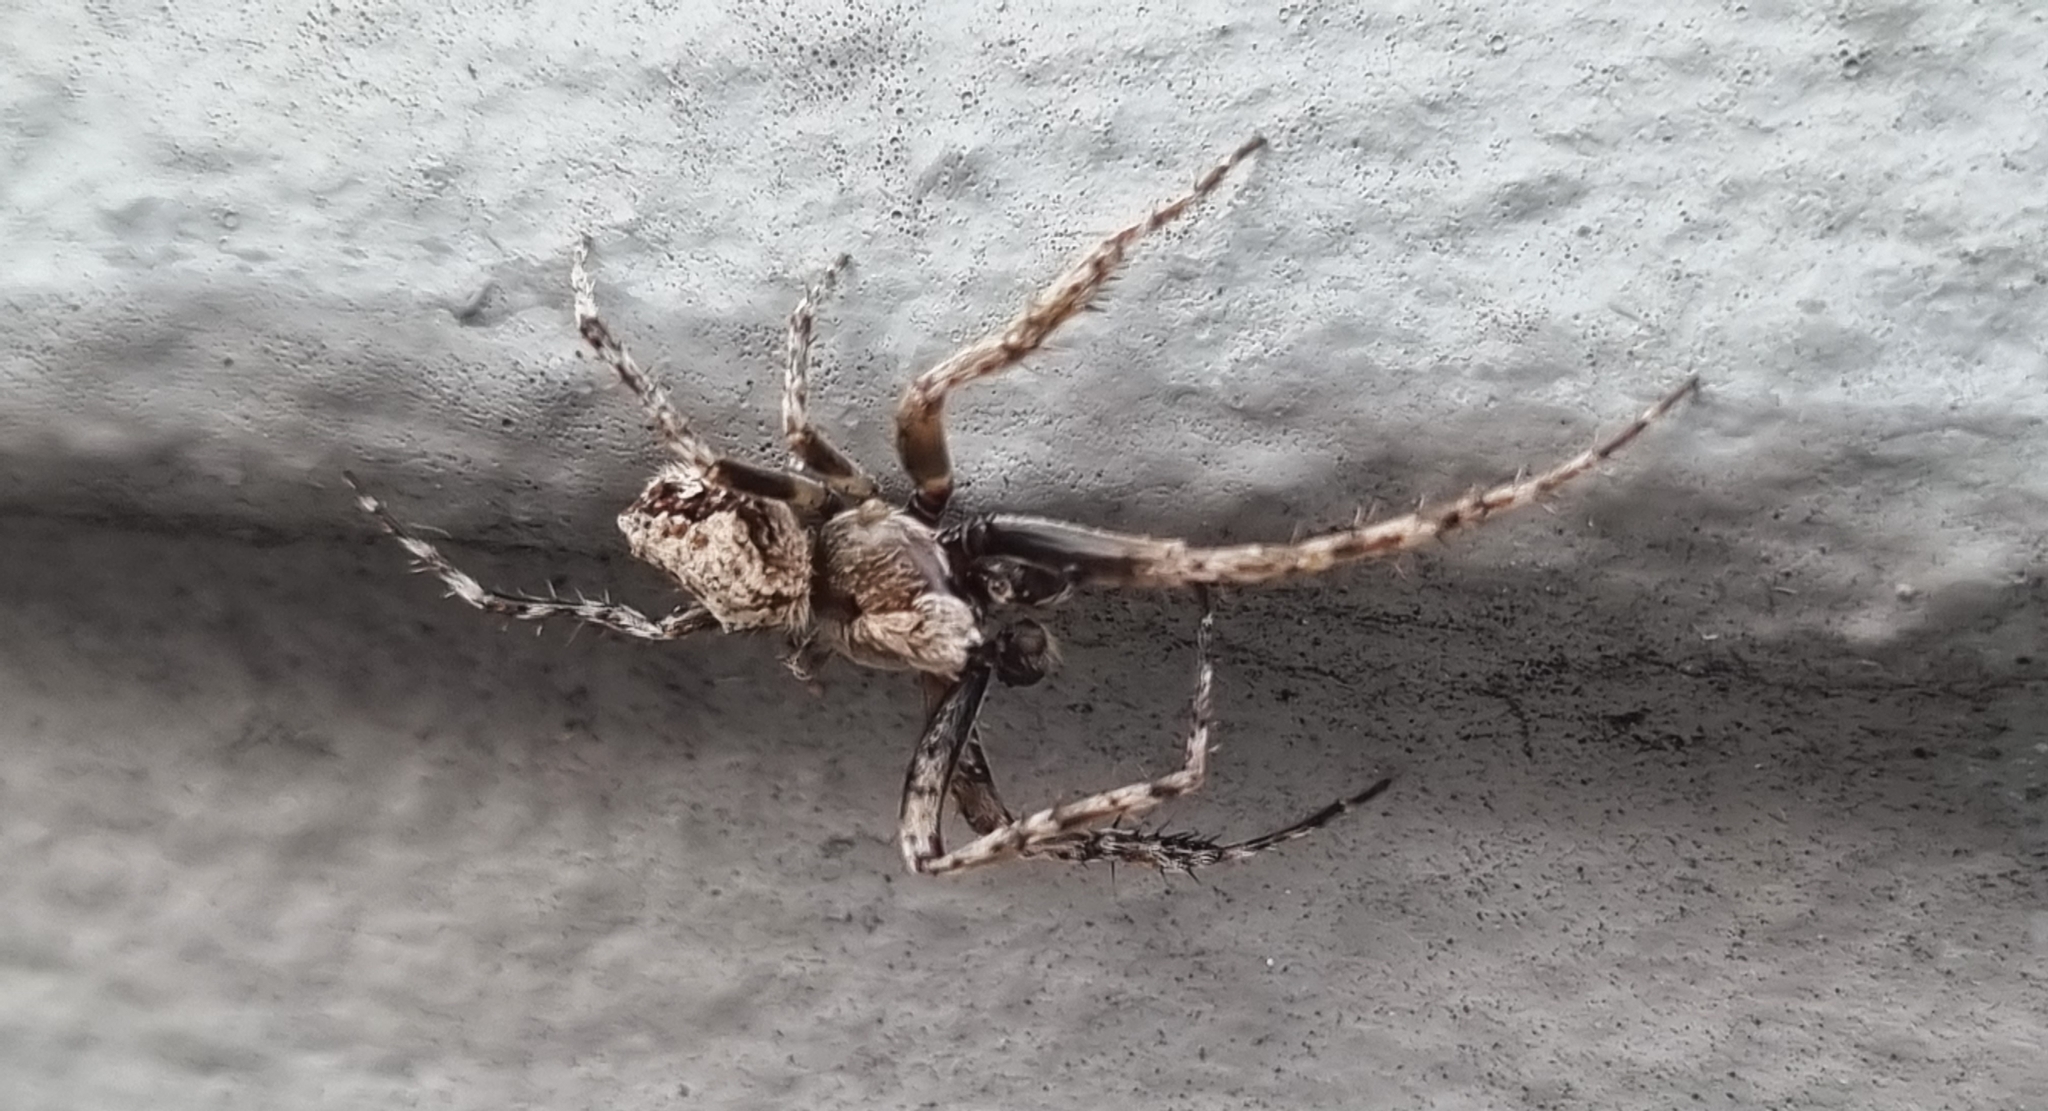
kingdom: Animalia
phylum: Arthropoda
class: Arachnida
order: Araneae
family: Araneidae
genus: Eriophora
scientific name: Eriophora pustulosa
